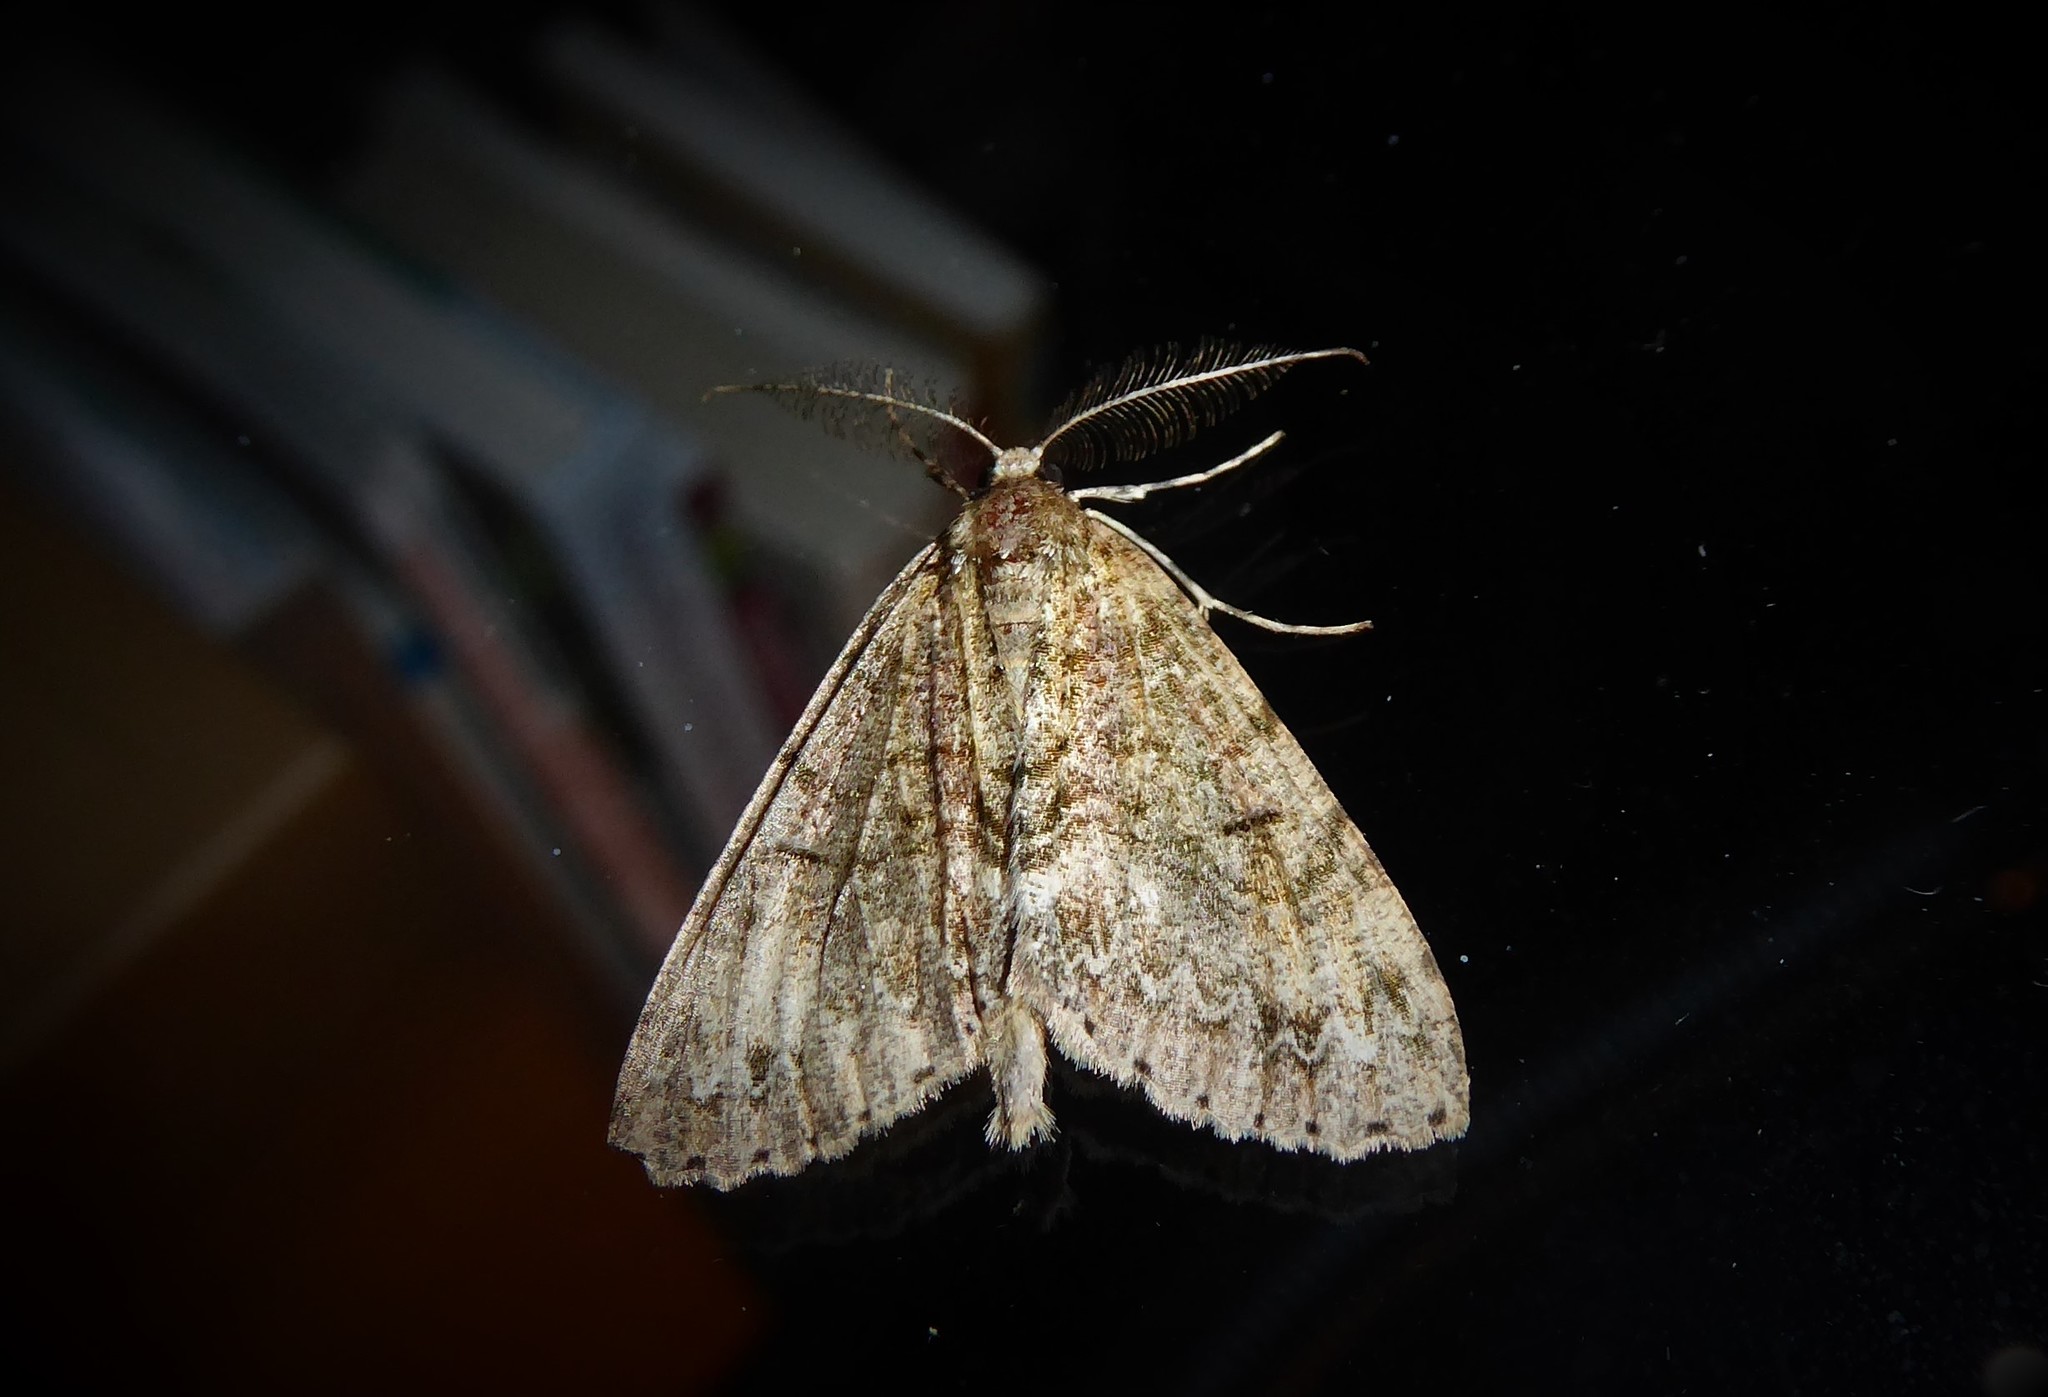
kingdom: Animalia
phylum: Arthropoda
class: Insecta
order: Lepidoptera
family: Geometridae
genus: Pseudocoremia
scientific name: Pseudocoremia suavis
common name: Common forest looper
